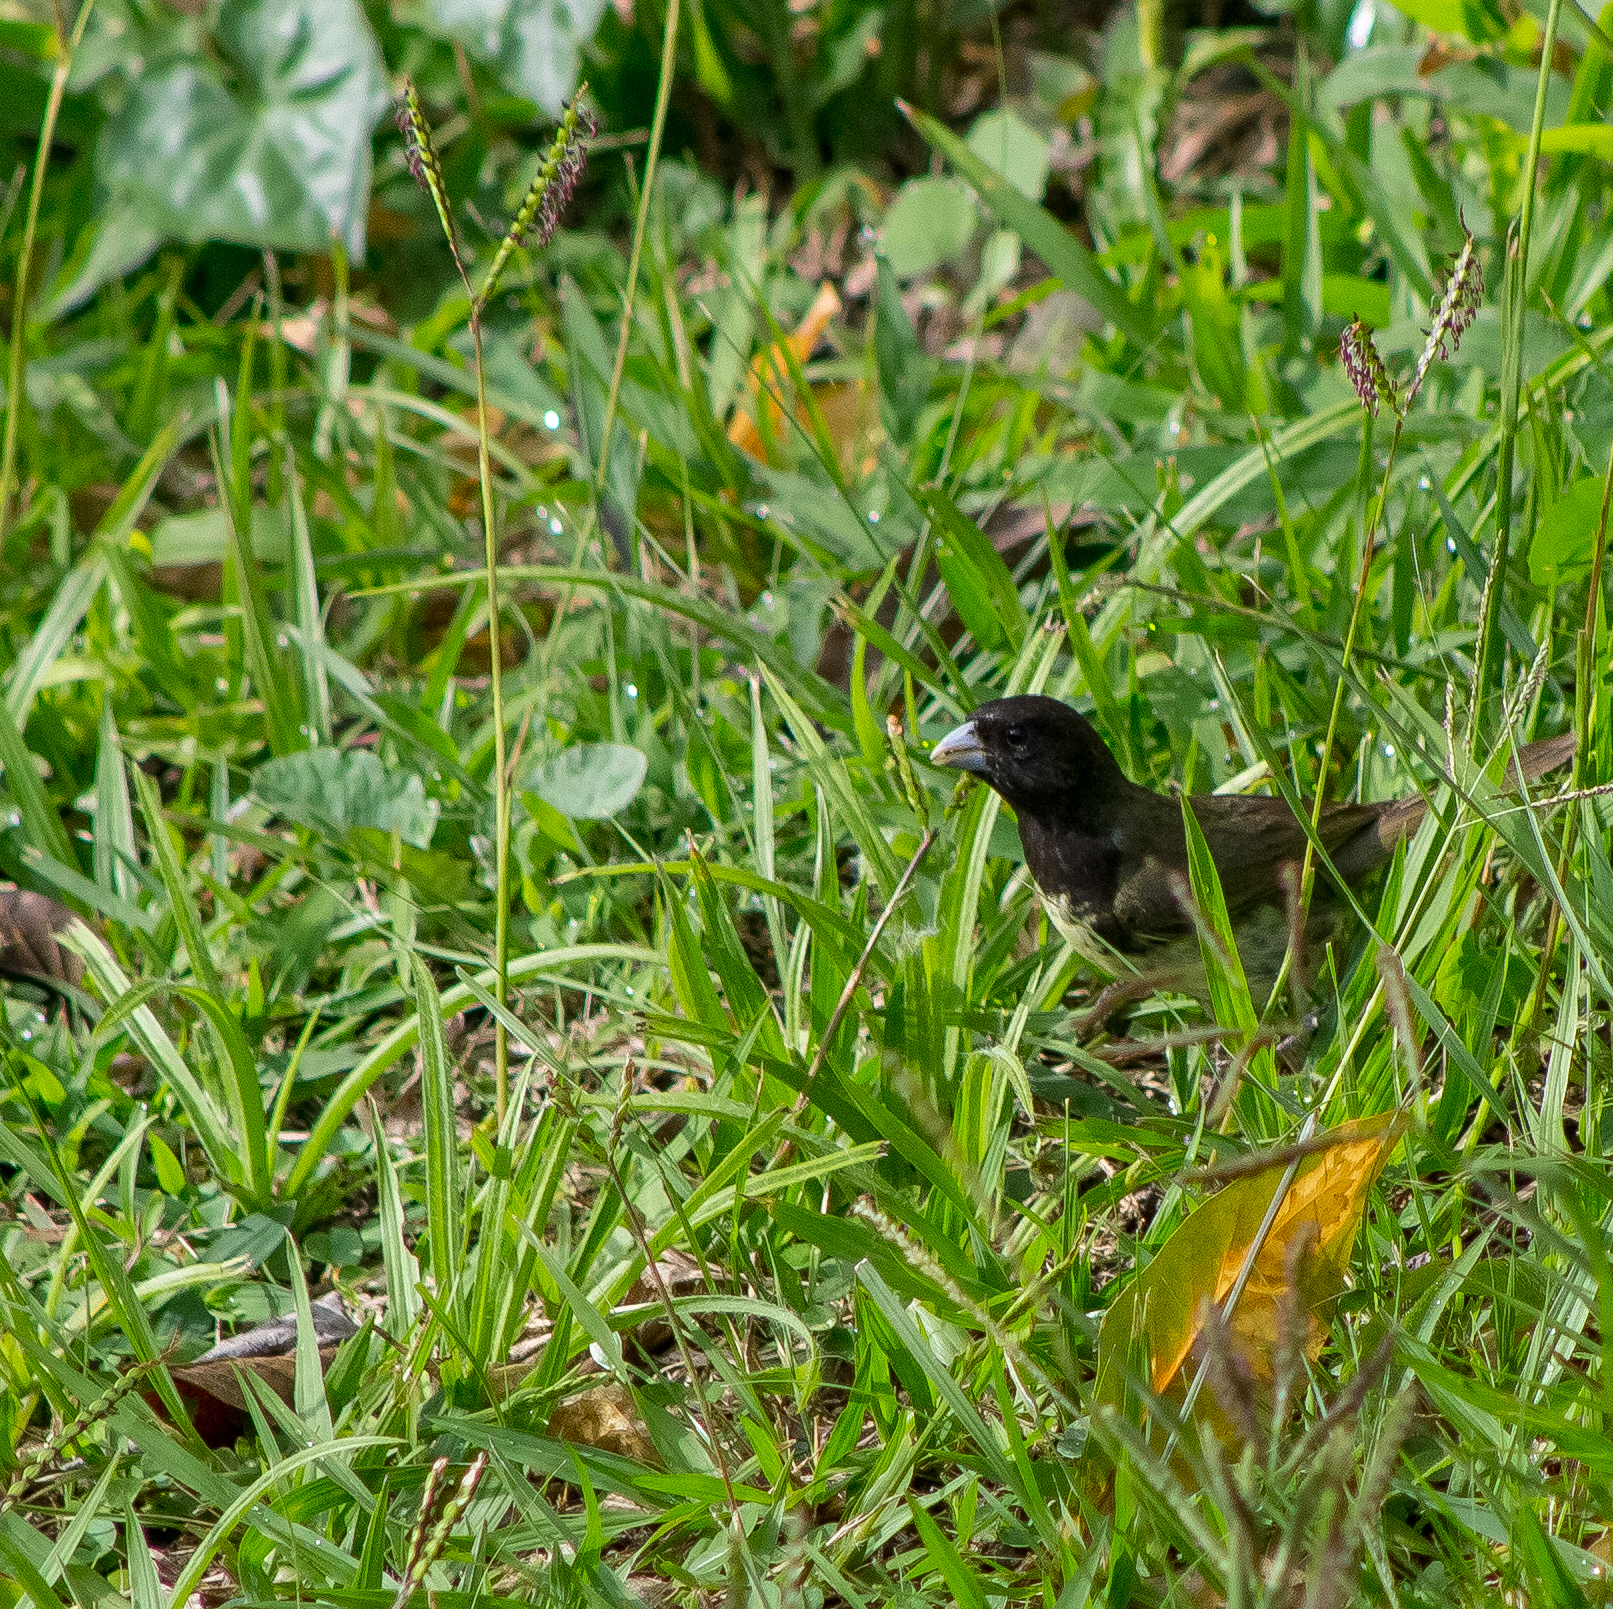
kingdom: Animalia
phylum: Chordata
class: Aves
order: Passeriformes
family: Thraupidae
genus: Sporophila
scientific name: Sporophila nigricollis
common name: Yellow-bellied seedeater
